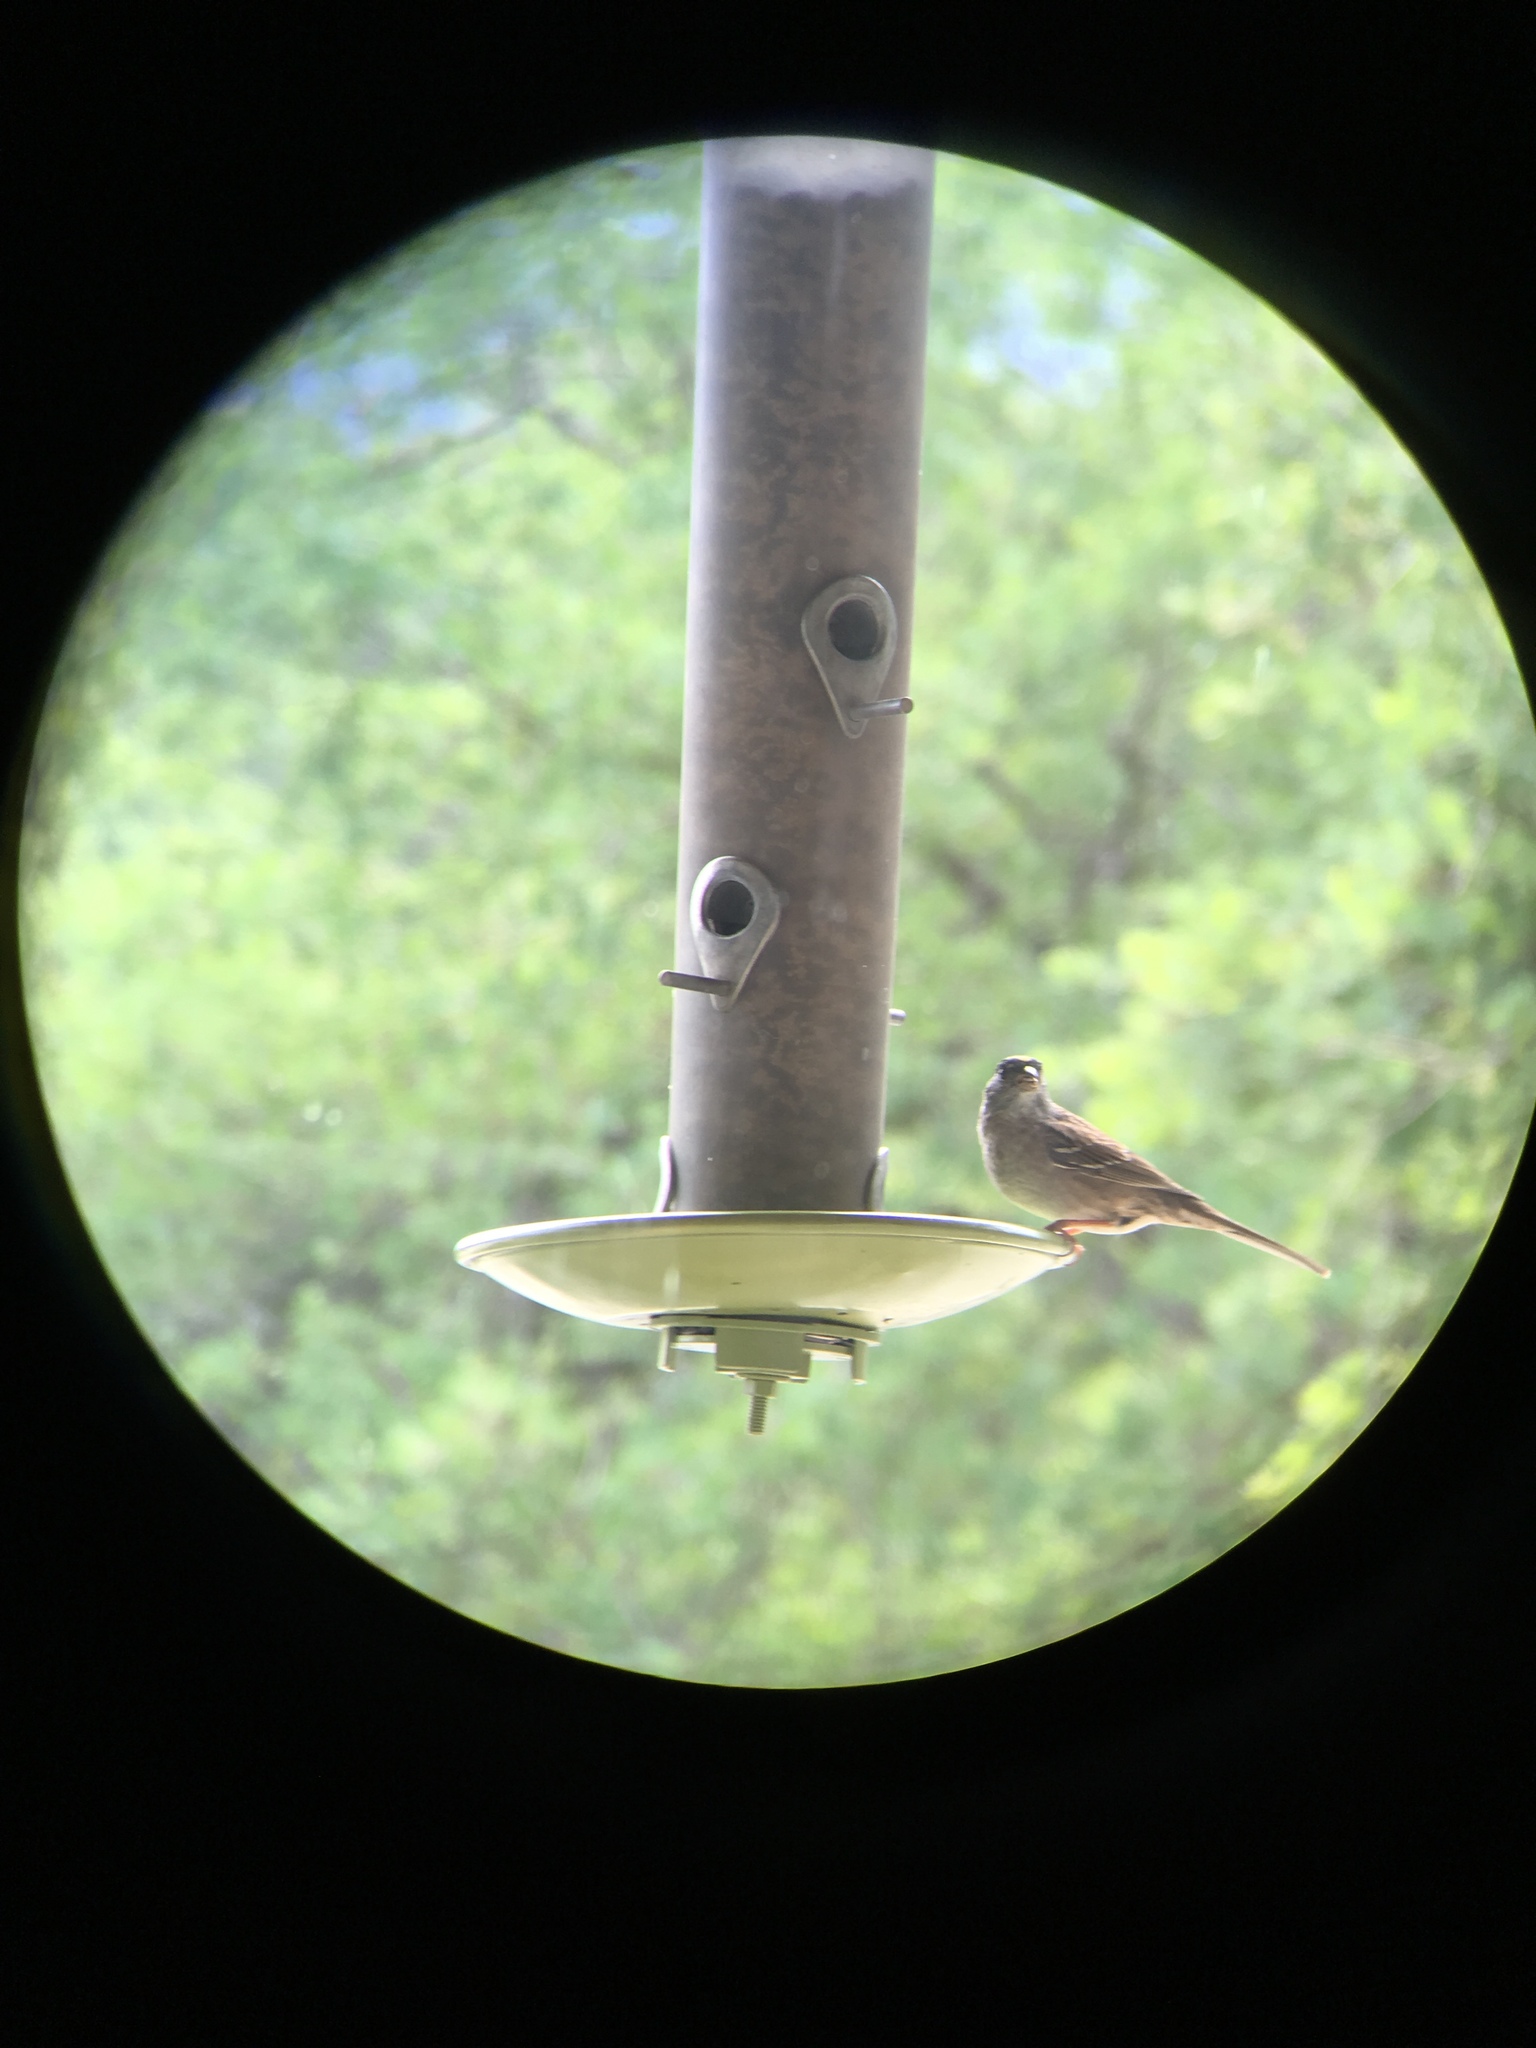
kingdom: Animalia
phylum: Chordata
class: Aves
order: Passeriformes
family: Passerellidae
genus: Zonotrichia
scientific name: Zonotrichia atricapilla
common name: Golden-crowned sparrow
